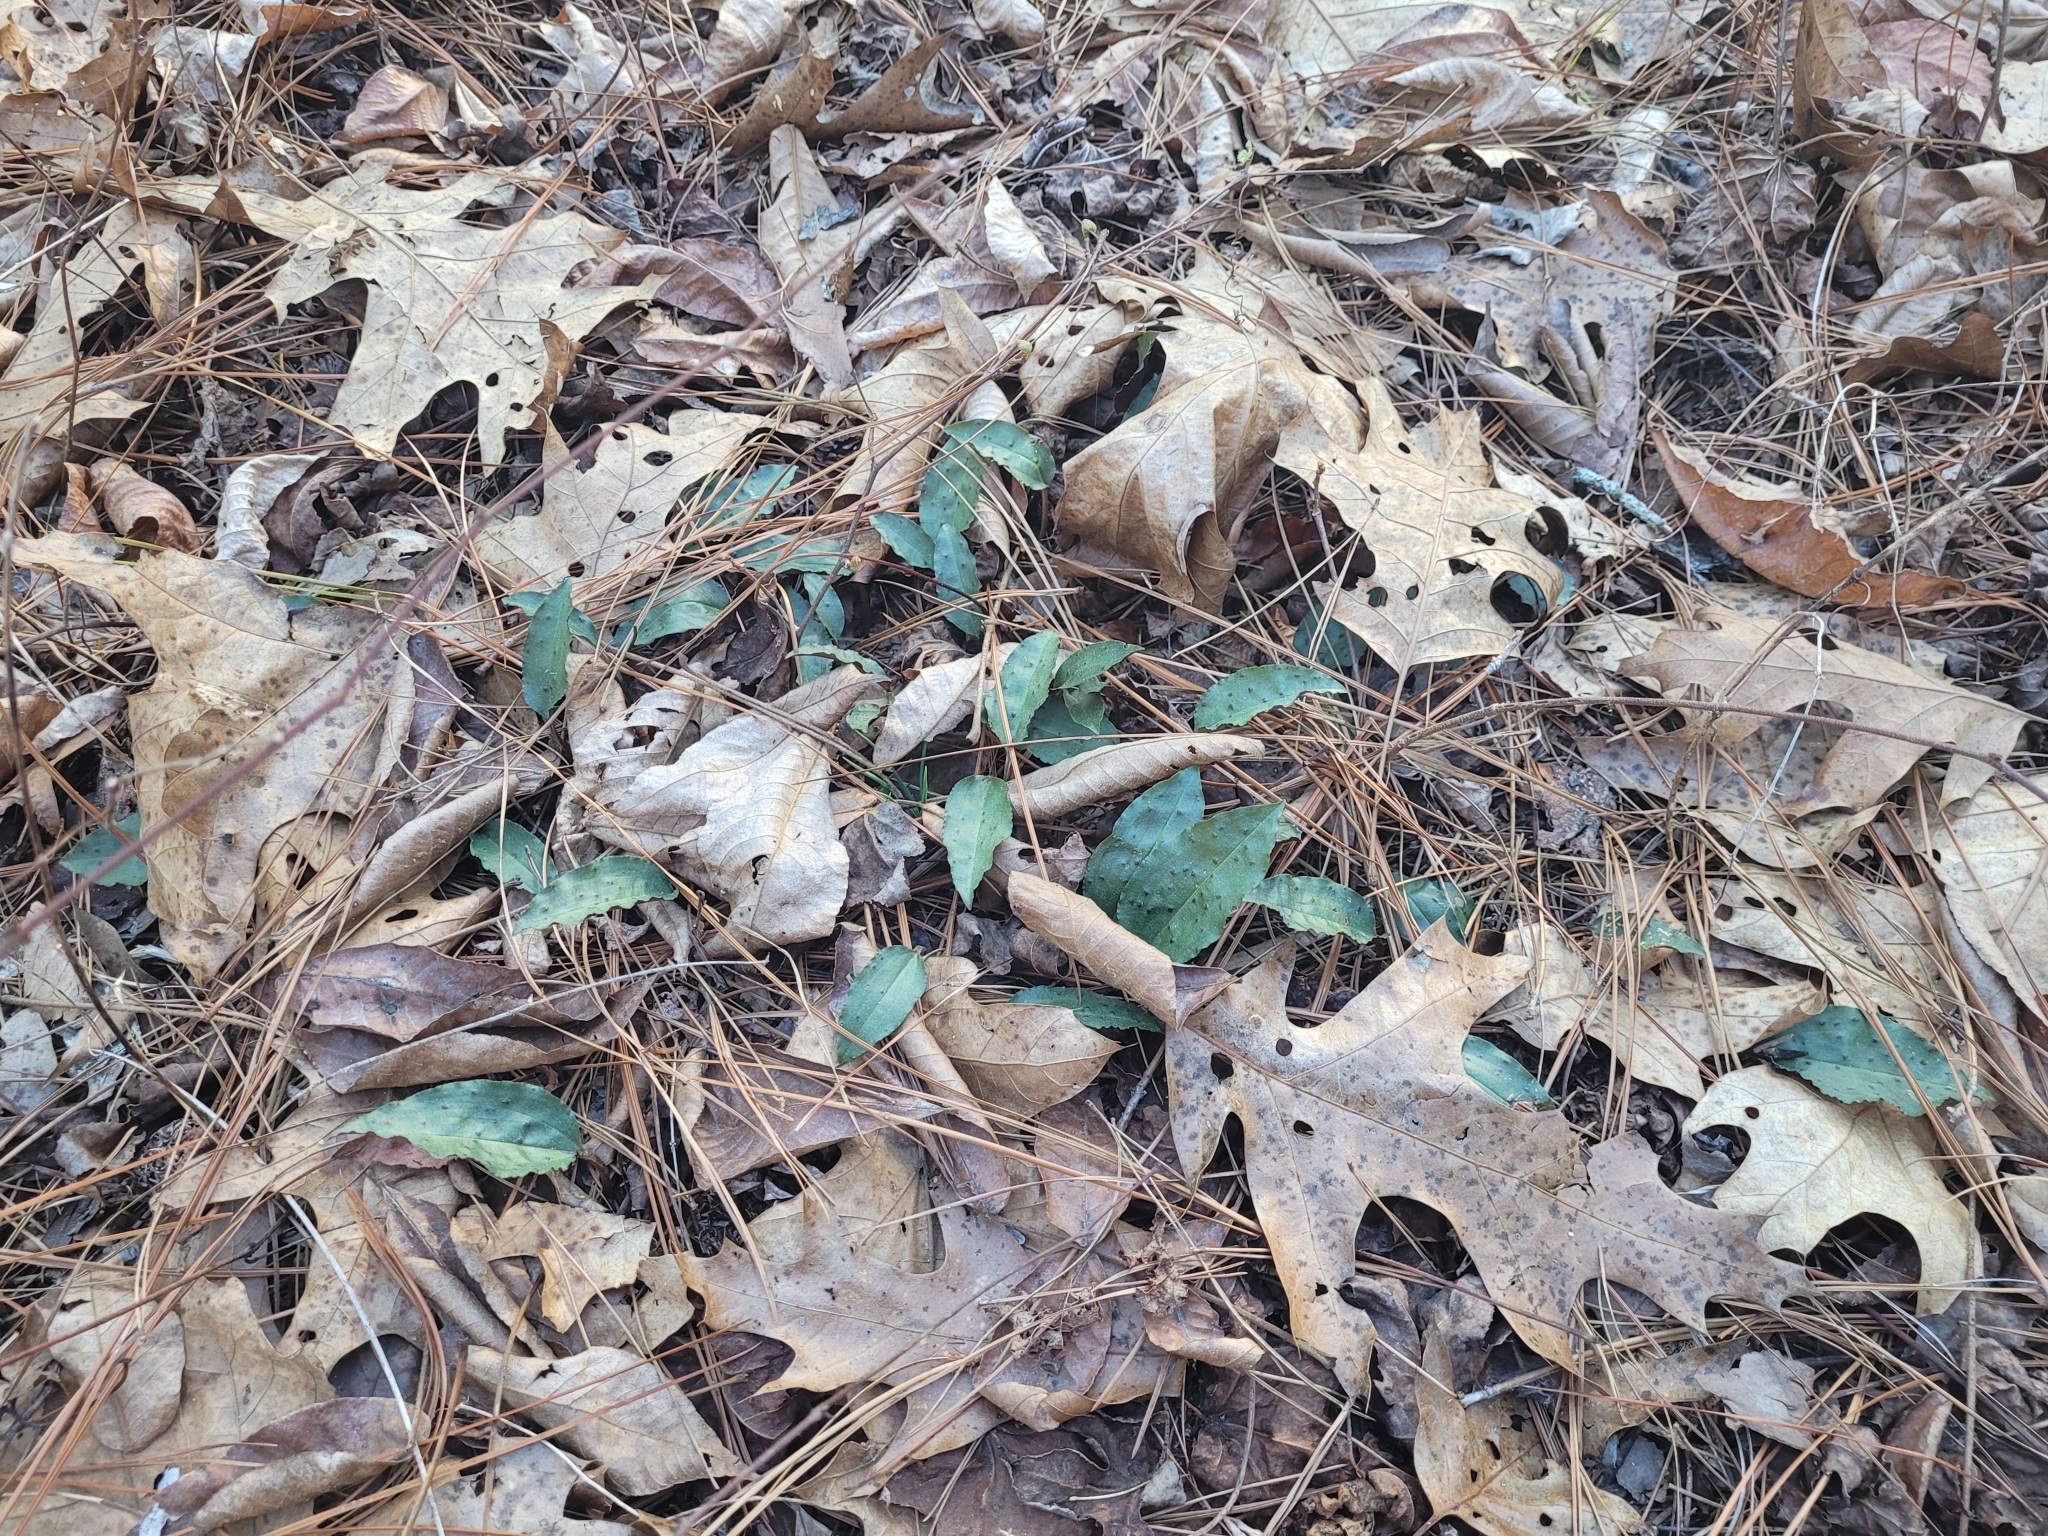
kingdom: Plantae
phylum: Tracheophyta
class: Liliopsida
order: Asparagales
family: Orchidaceae
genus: Tipularia
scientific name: Tipularia discolor
